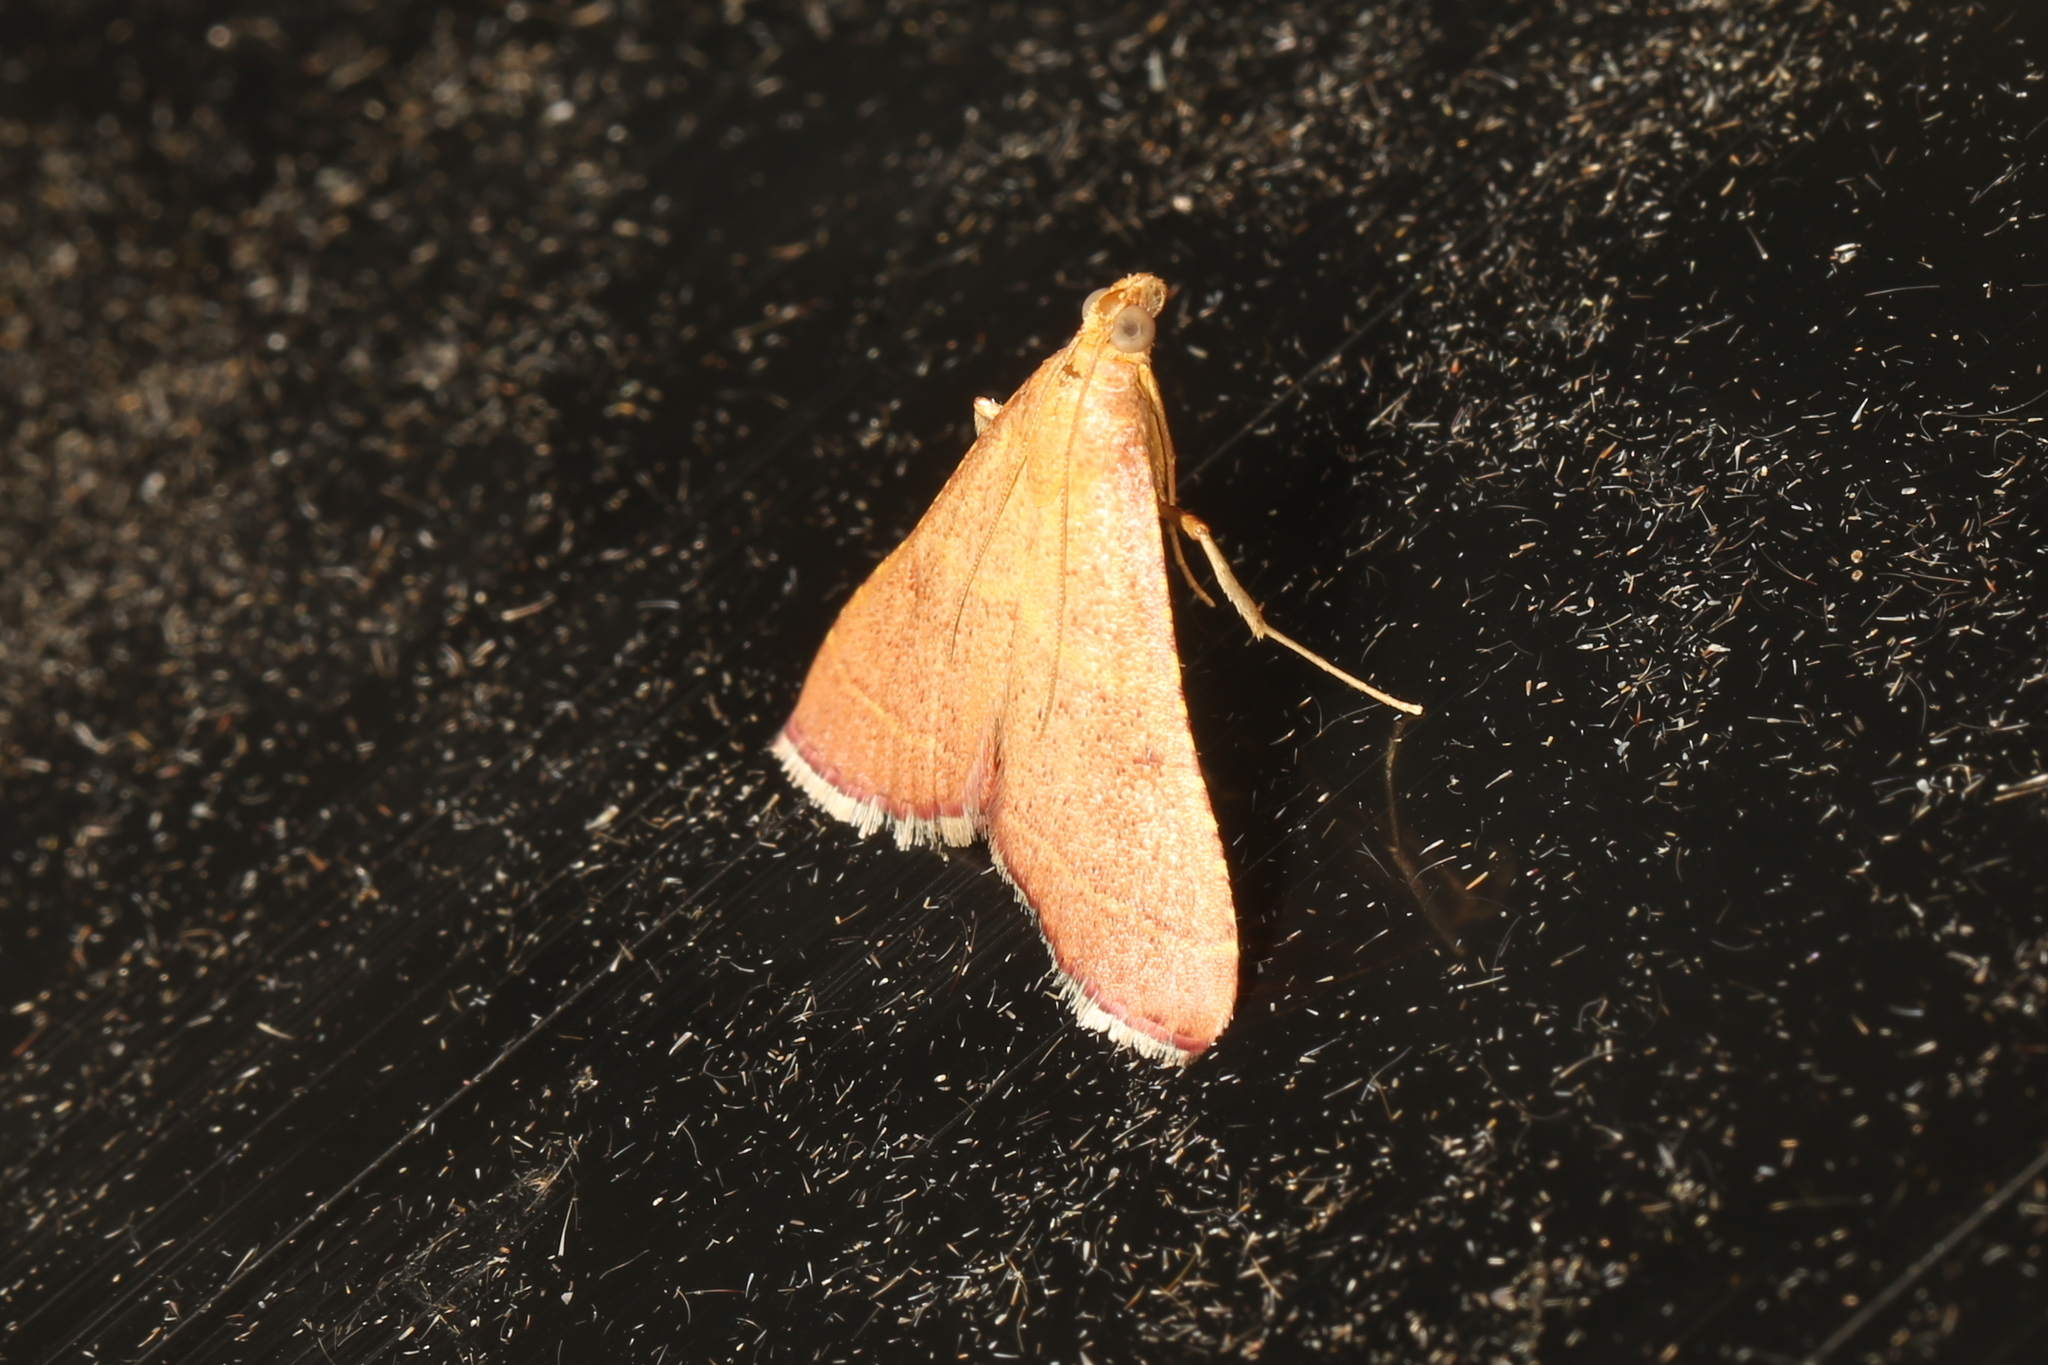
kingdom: Animalia
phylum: Arthropoda
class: Insecta
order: Lepidoptera
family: Pyralidae
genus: Endotricha
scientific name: Endotricha pyrosalis
